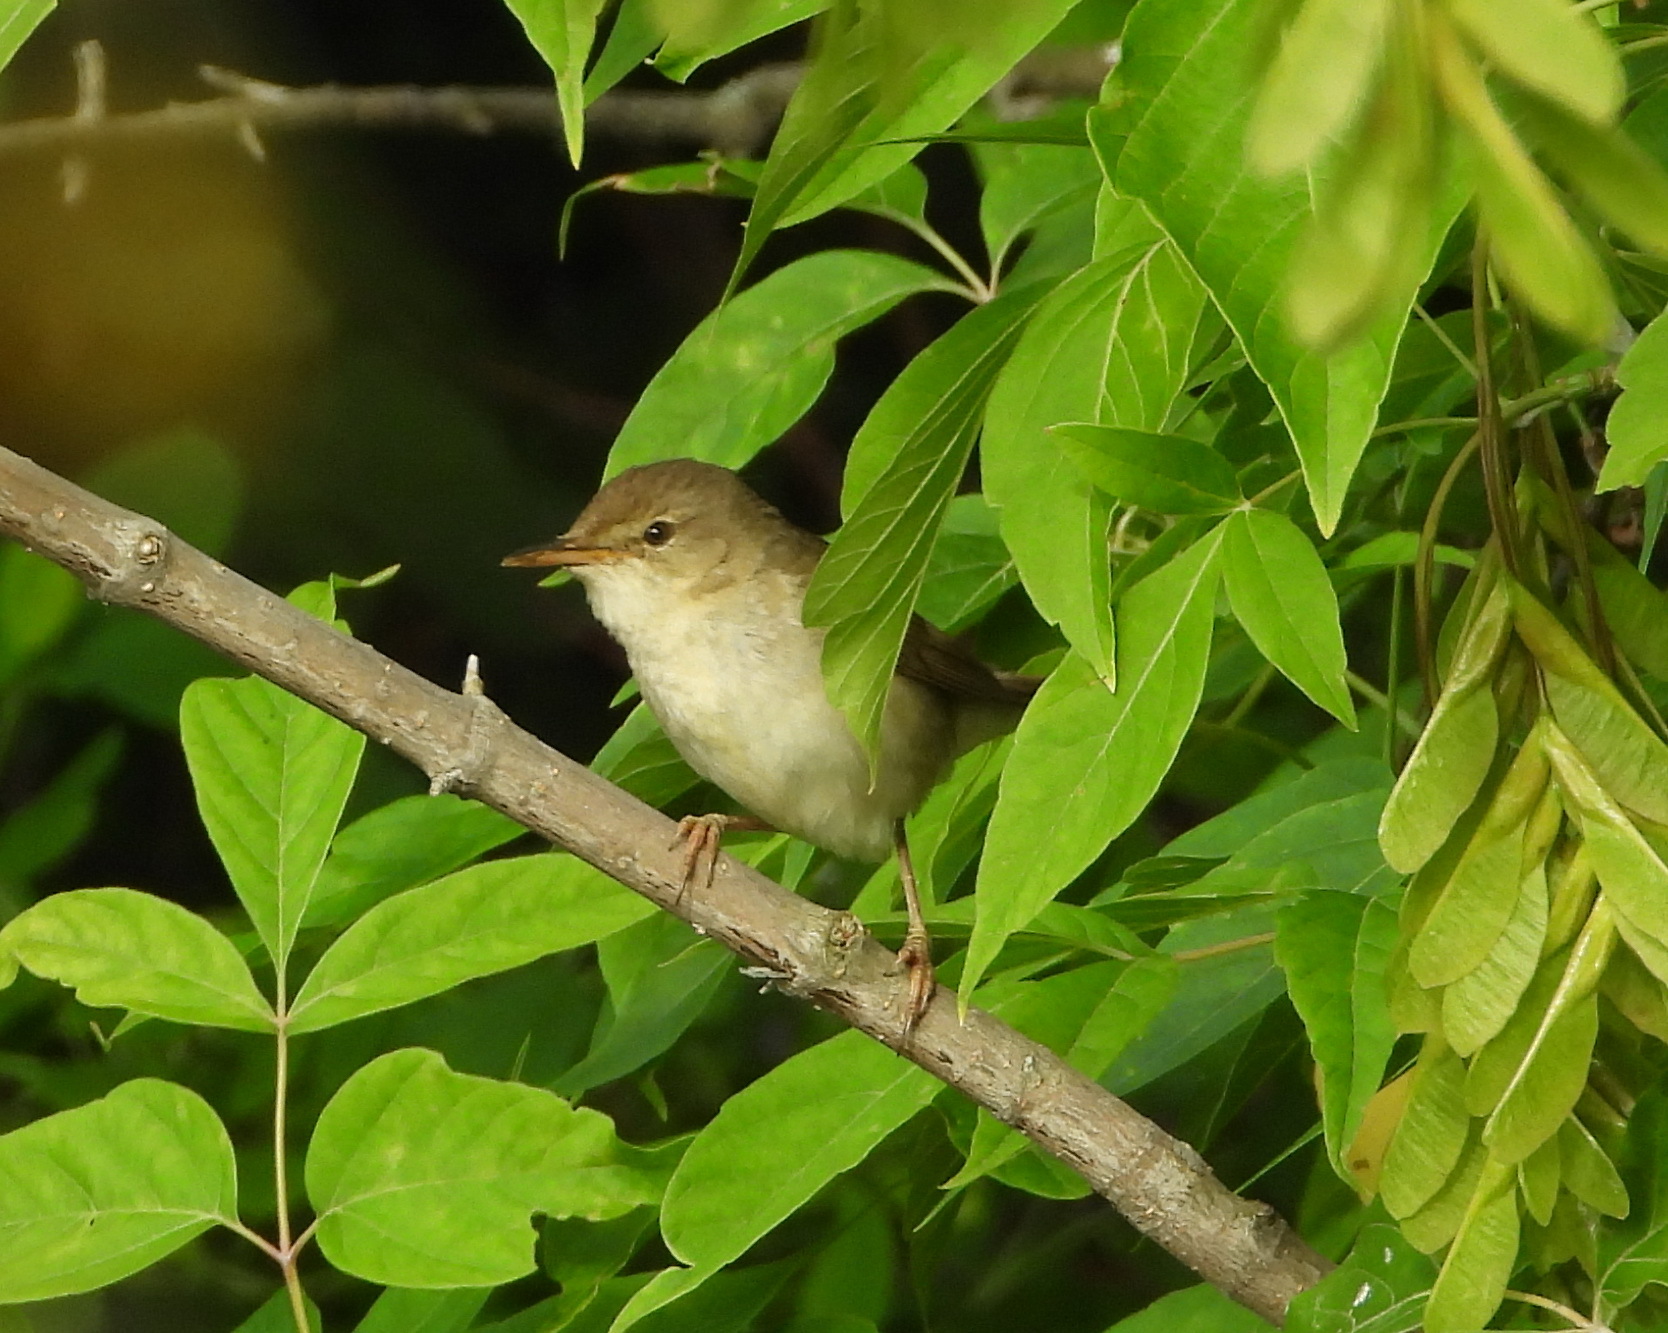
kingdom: Animalia
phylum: Chordata
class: Aves
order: Passeriformes
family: Acrocephalidae
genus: Acrocephalus
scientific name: Acrocephalus dumetorum
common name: Blyth's reed warbler
